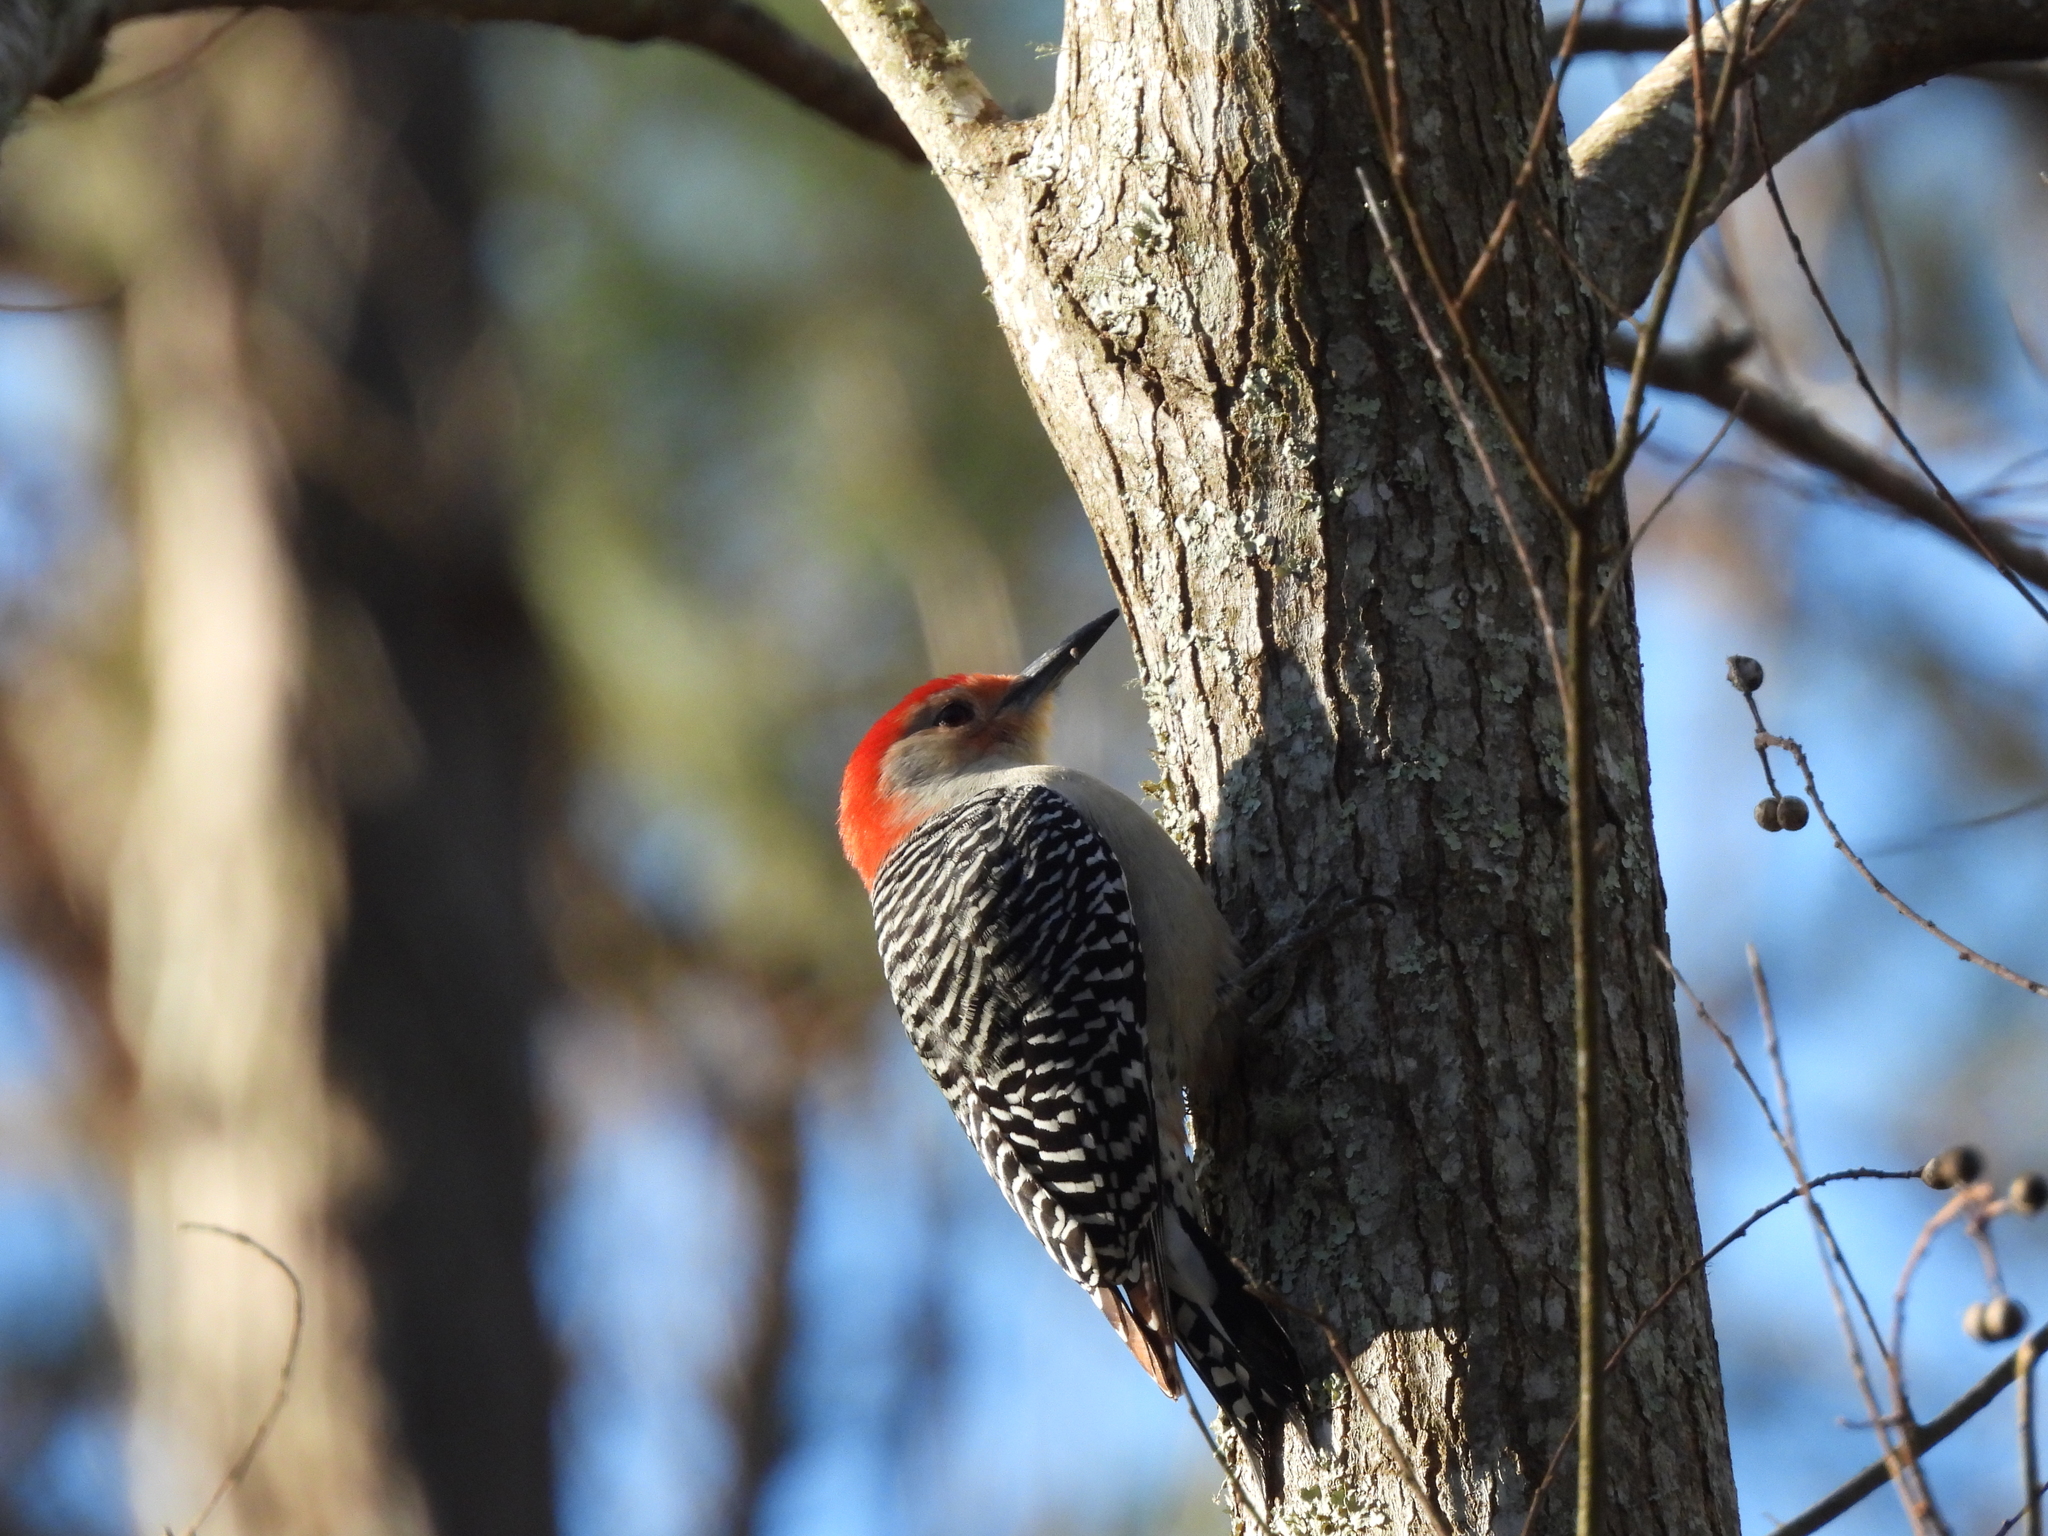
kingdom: Animalia
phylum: Chordata
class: Aves
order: Piciformes
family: Picidae
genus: Melanerpes
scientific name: Melanerpes carolinus
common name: Red-bellied woodpecker
